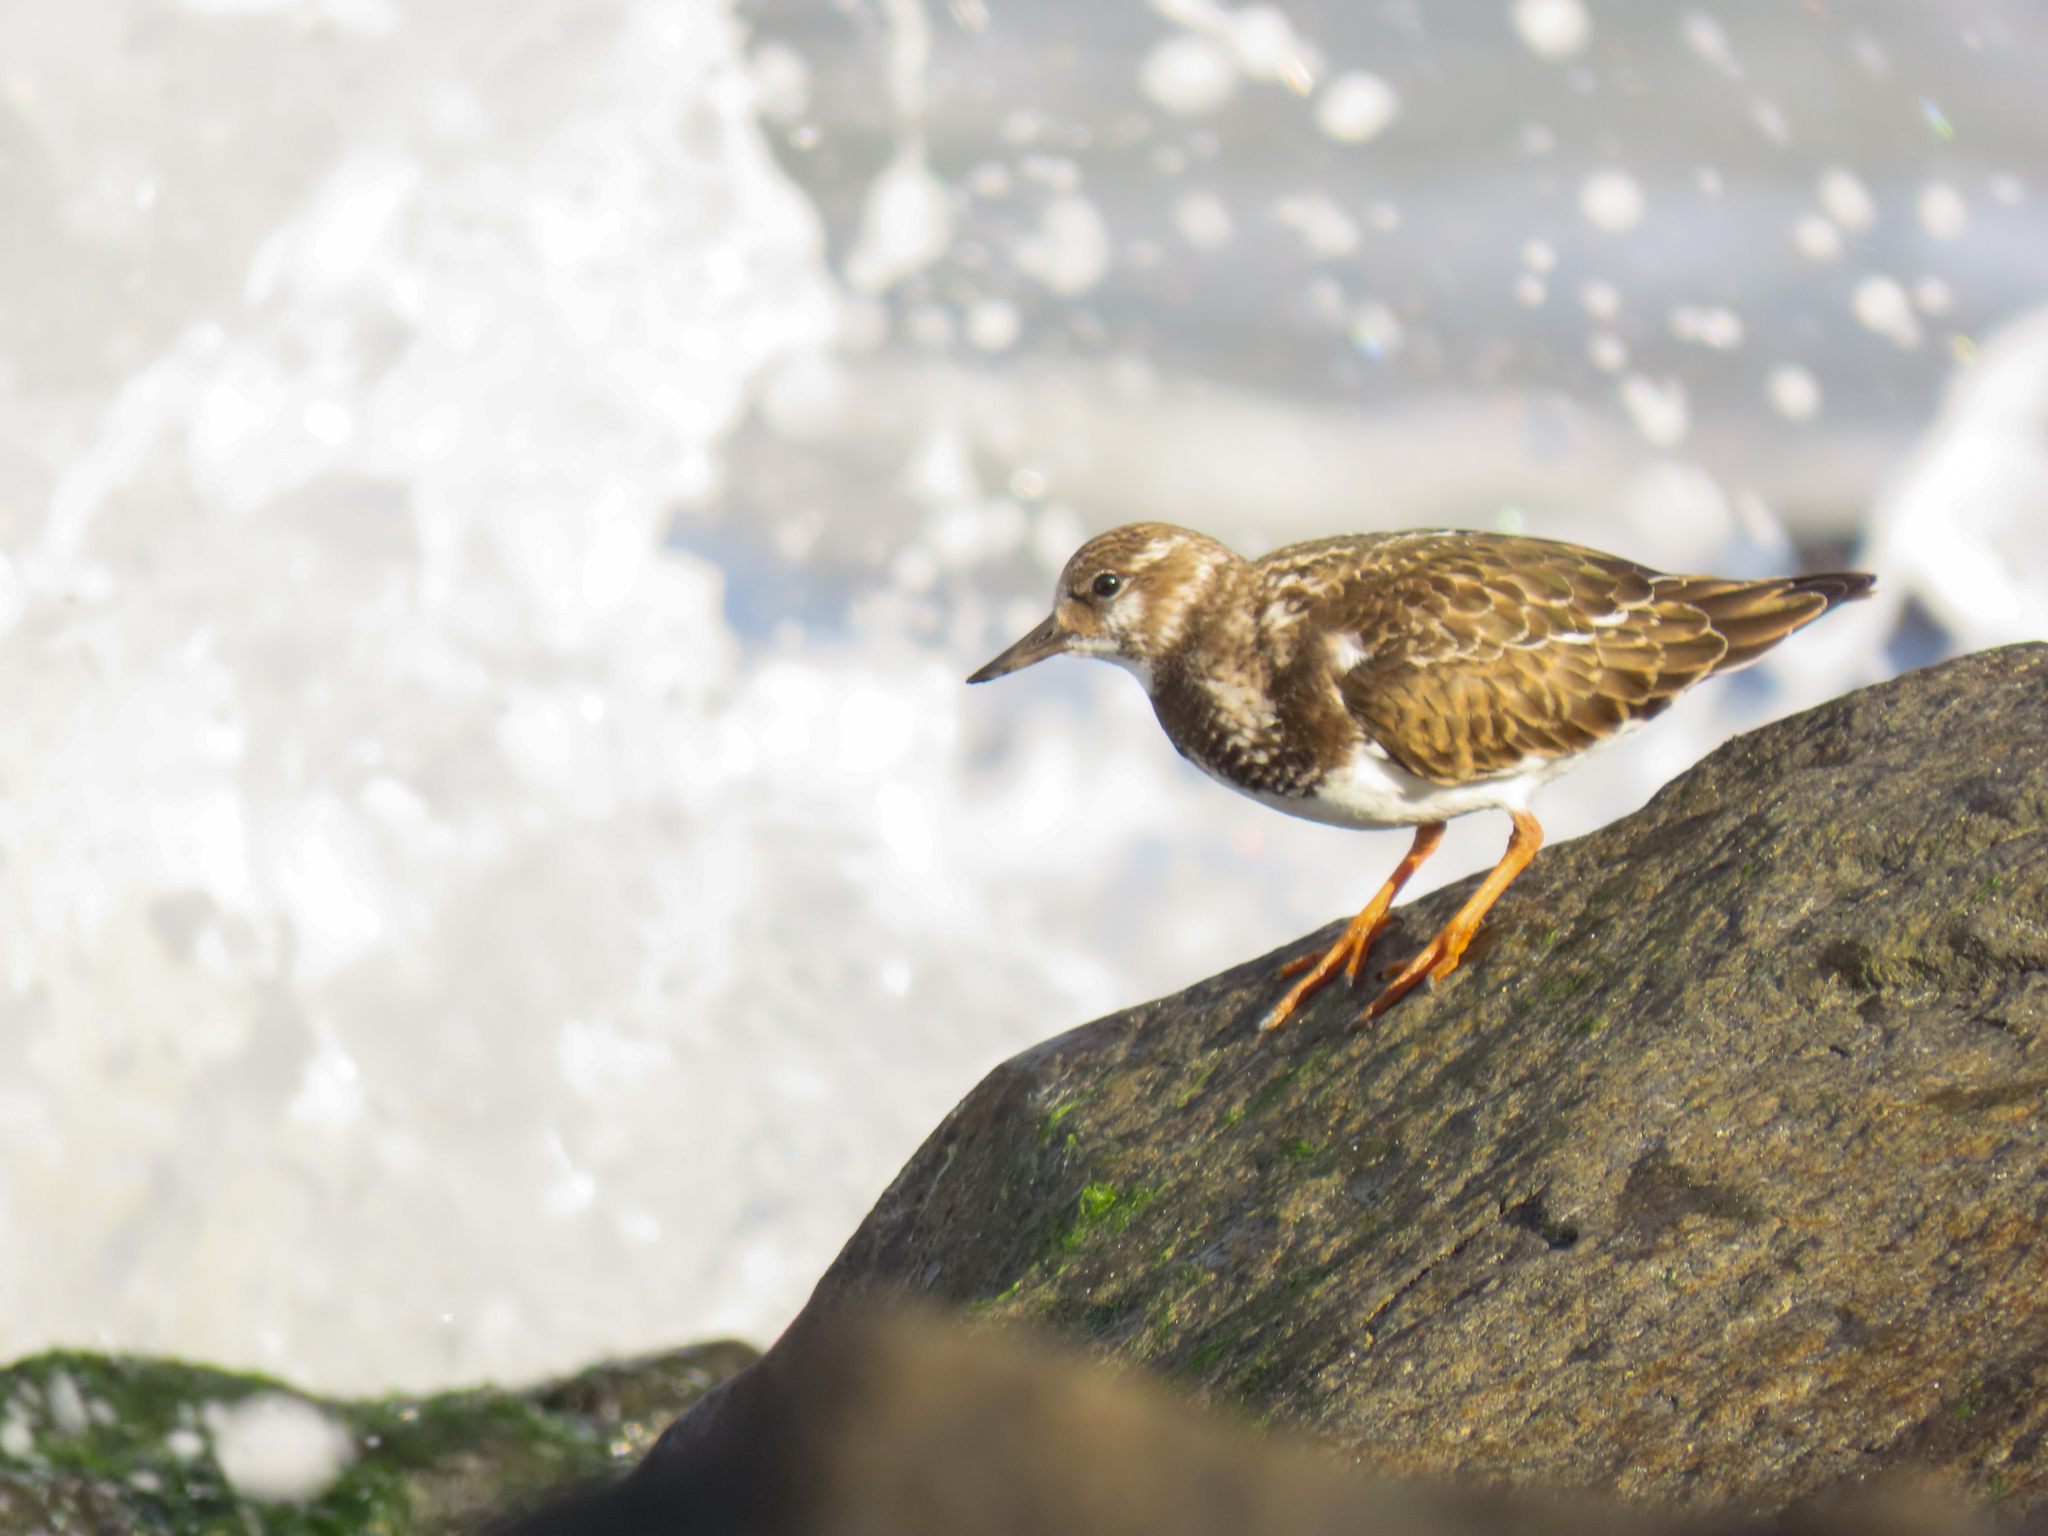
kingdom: Animalia
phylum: Chordata
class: Aves
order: Charadriiformes
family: Scolopacidae
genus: Arenaria
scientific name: Arenaria interpres
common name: Ruddy turnstone
